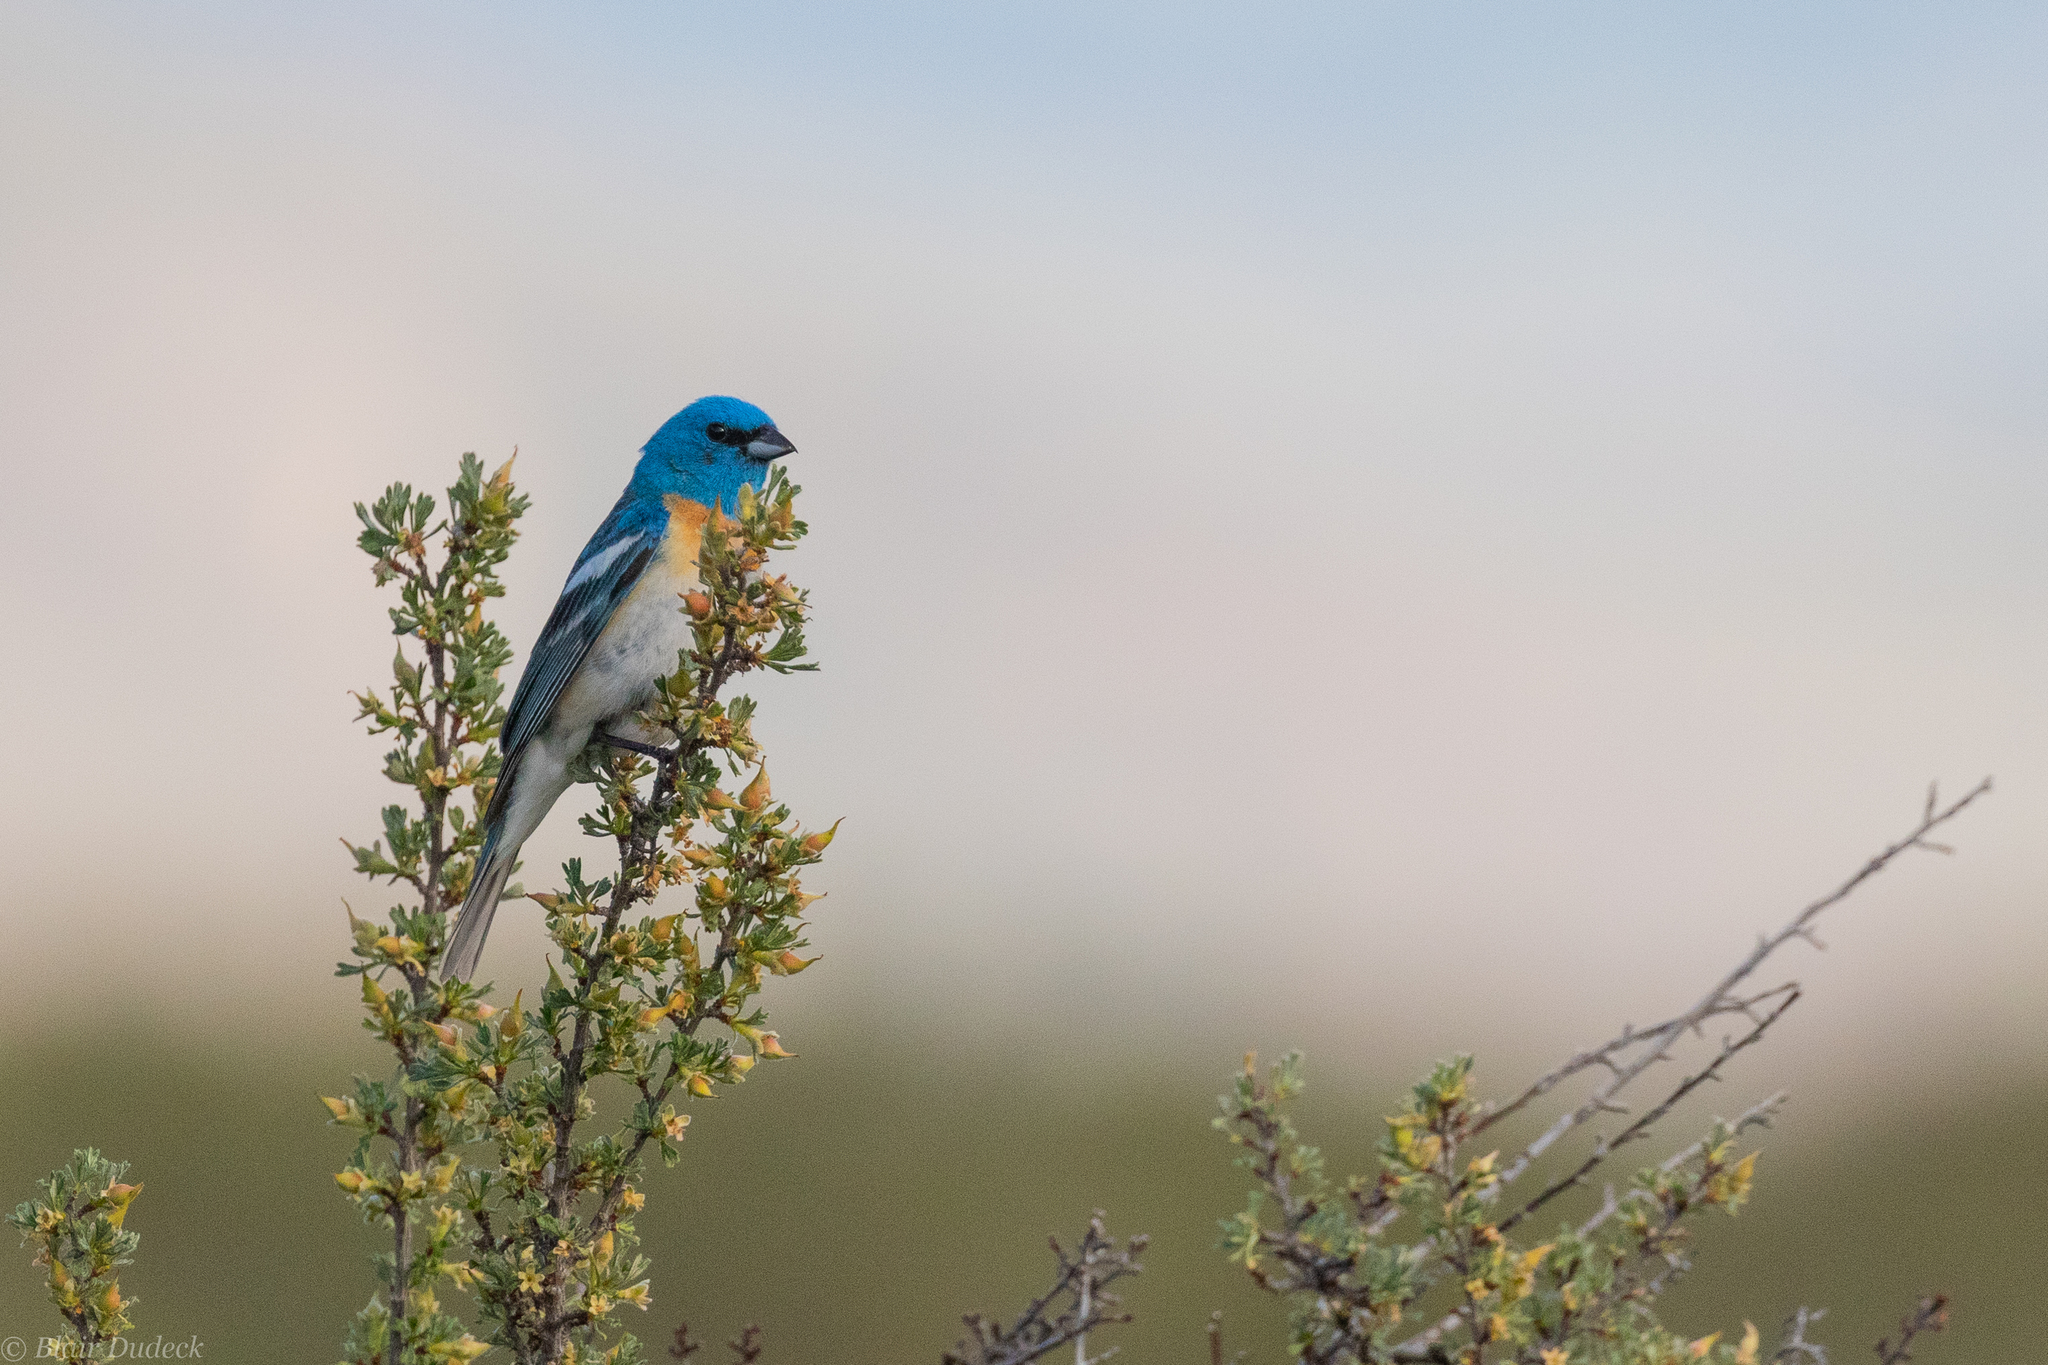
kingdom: Animalia
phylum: Chordata
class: Aves
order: Passeriformes
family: Cardinalidae
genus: Passerina
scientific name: Passerina amoena
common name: Lazuli bunting
